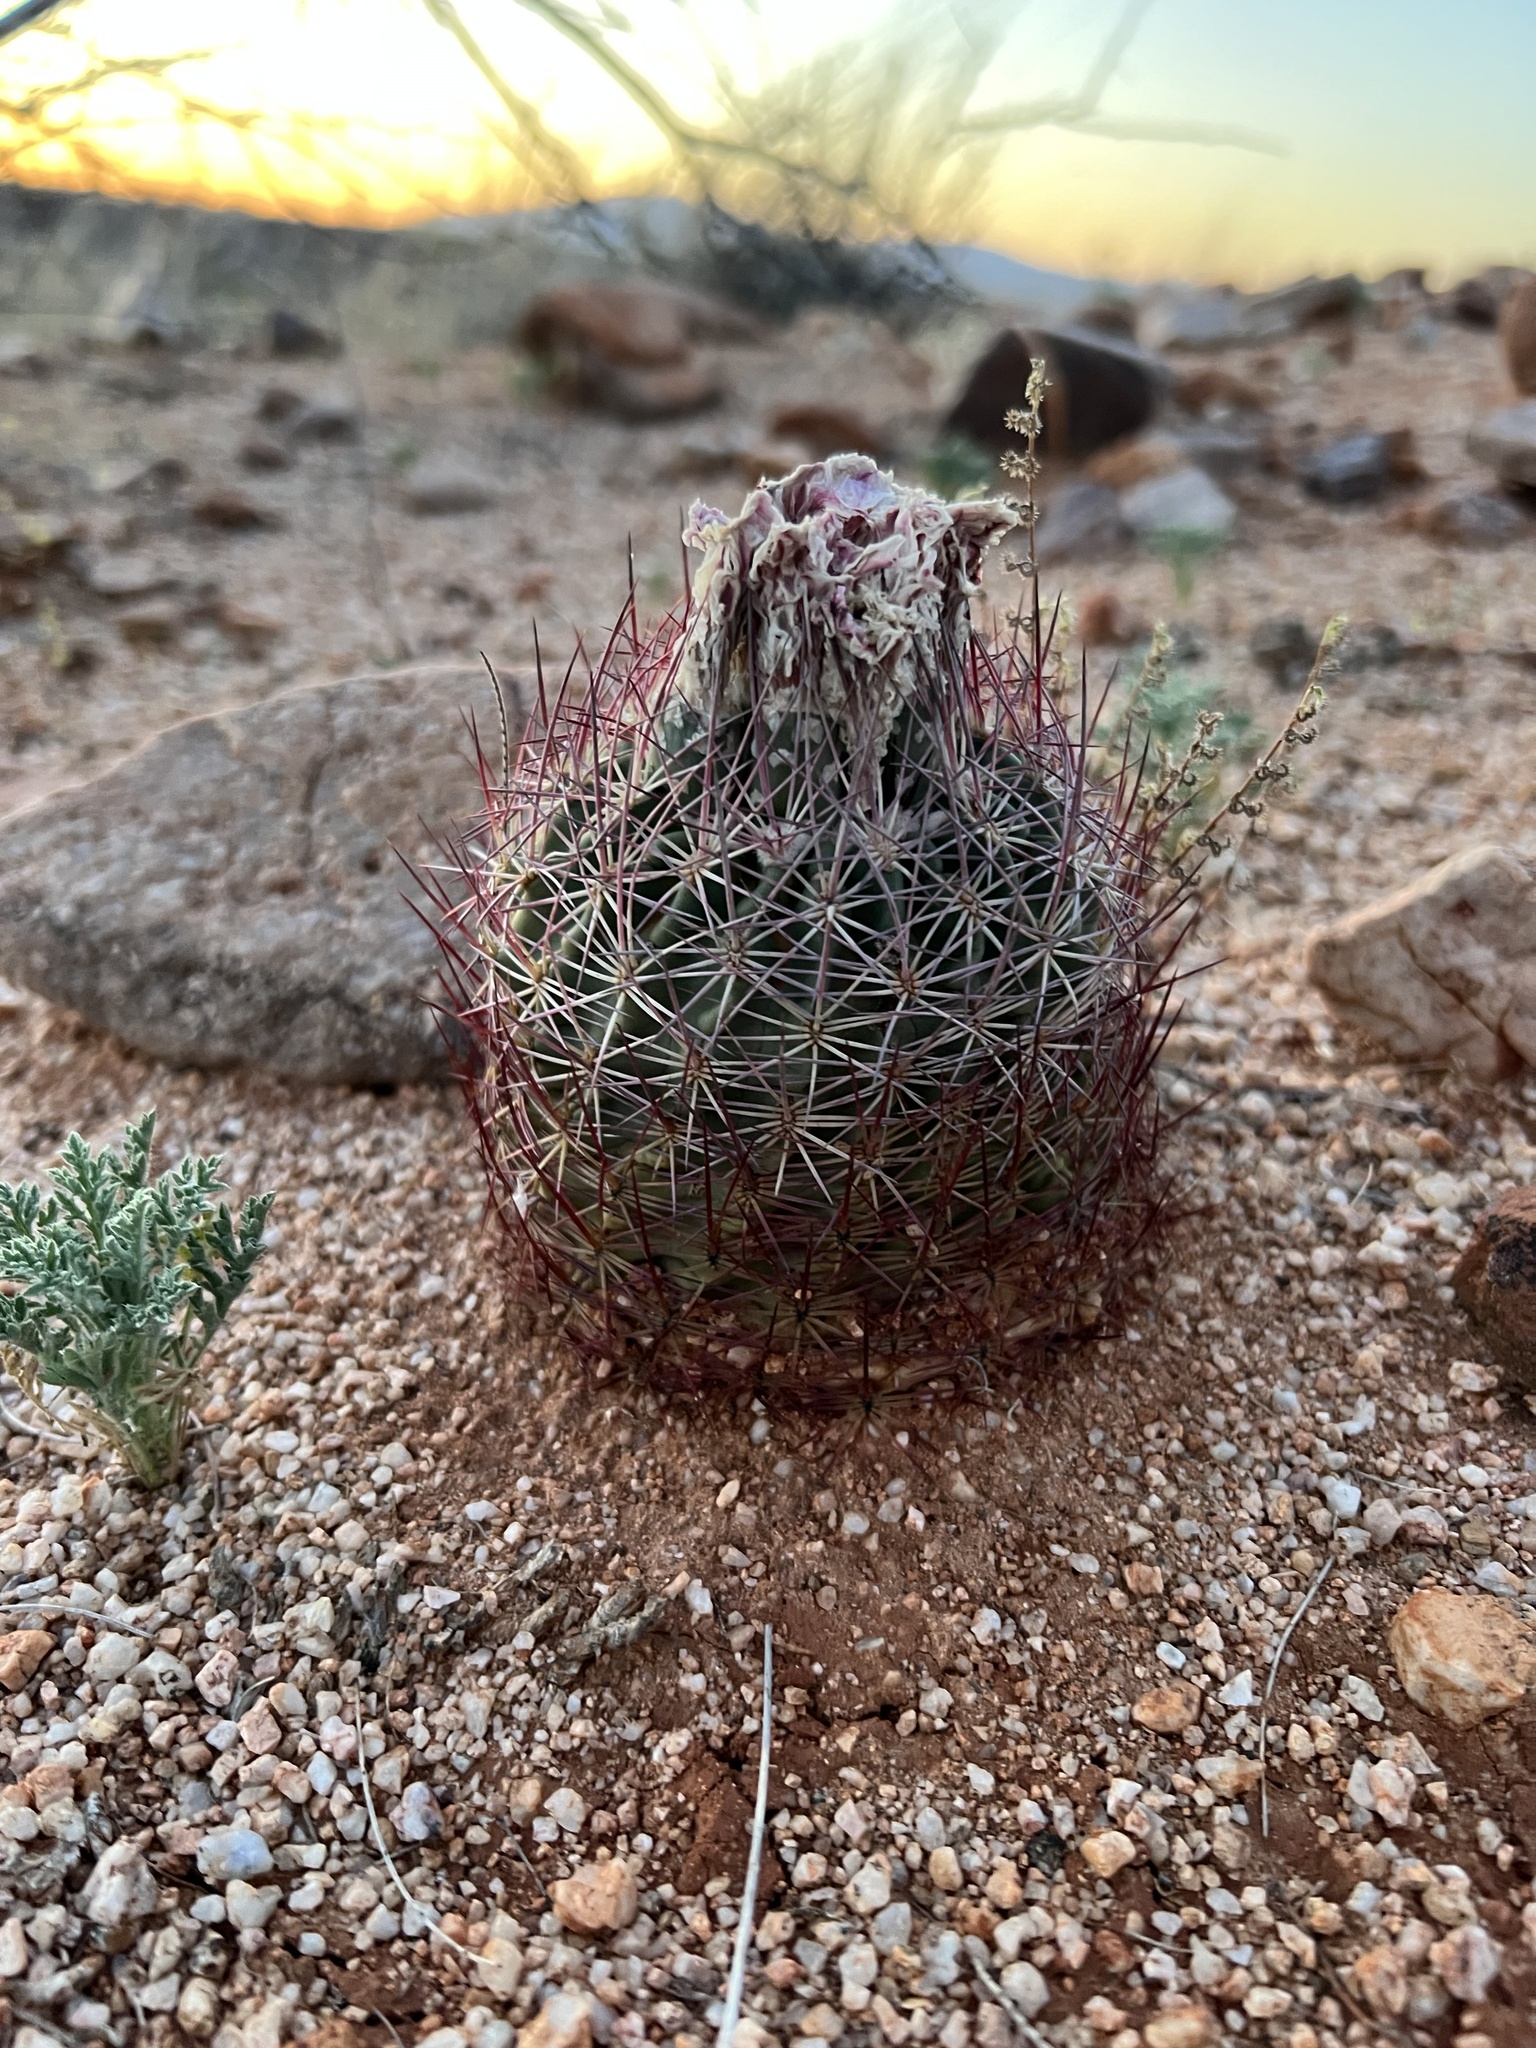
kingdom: Plantae
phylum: Tracheophyta
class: Magnoliopsida
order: Caryophyllales
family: Cactaceae
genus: Sclerocactus
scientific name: Sclerocactus johnsonii
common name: Eight-spine fishhook cactus
